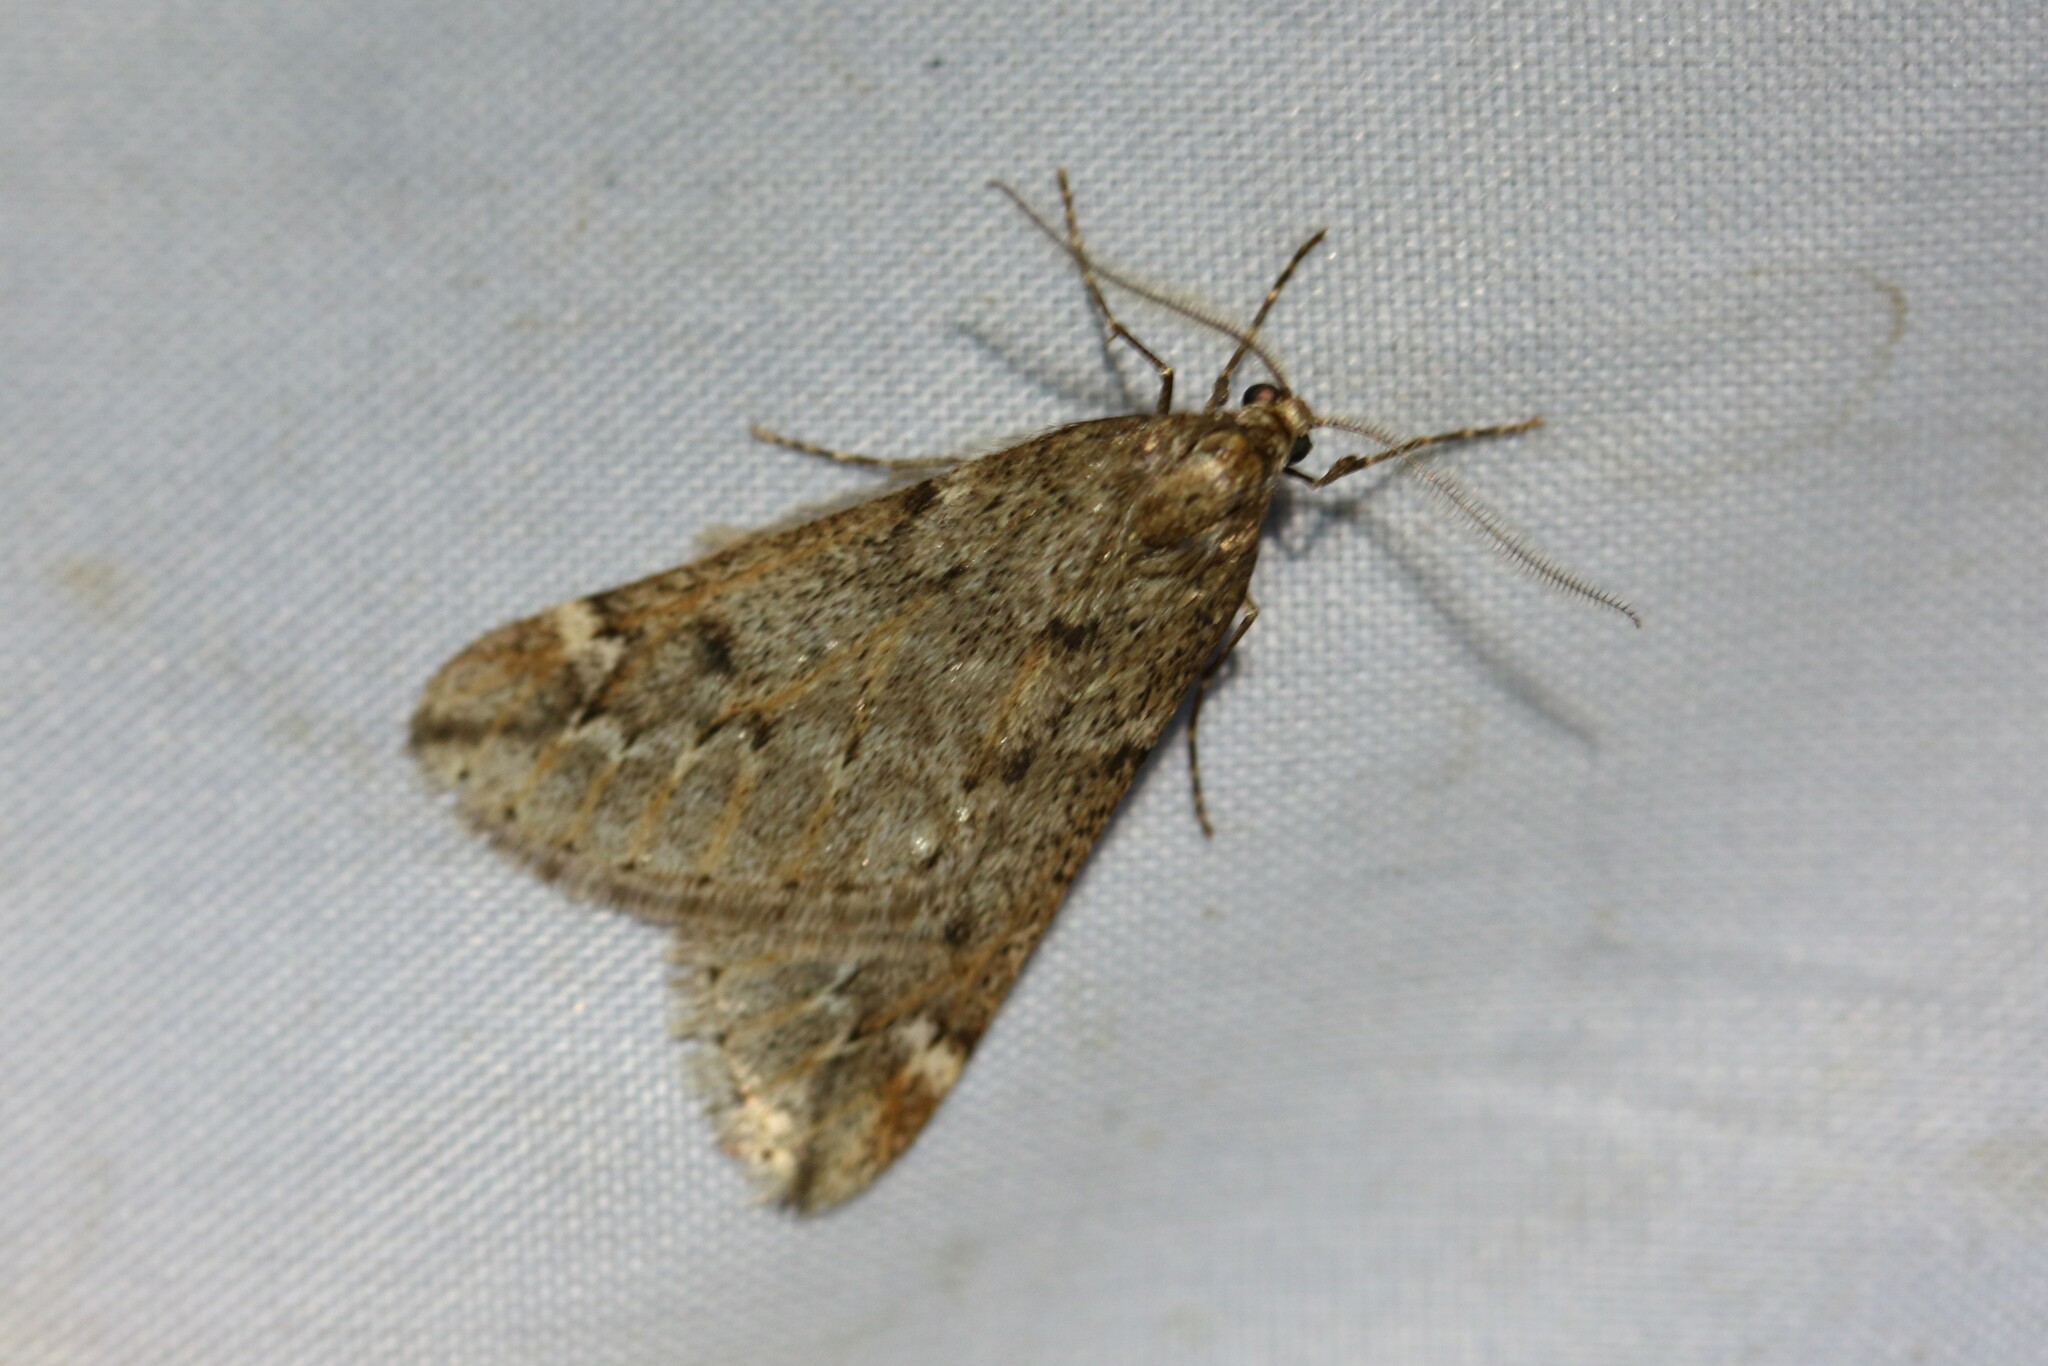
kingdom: Animalia
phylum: Arthropoda
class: Insecta
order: Lepidoptera
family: Geometridae
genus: Alsophila
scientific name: Alsophila aescularia
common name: March moth
